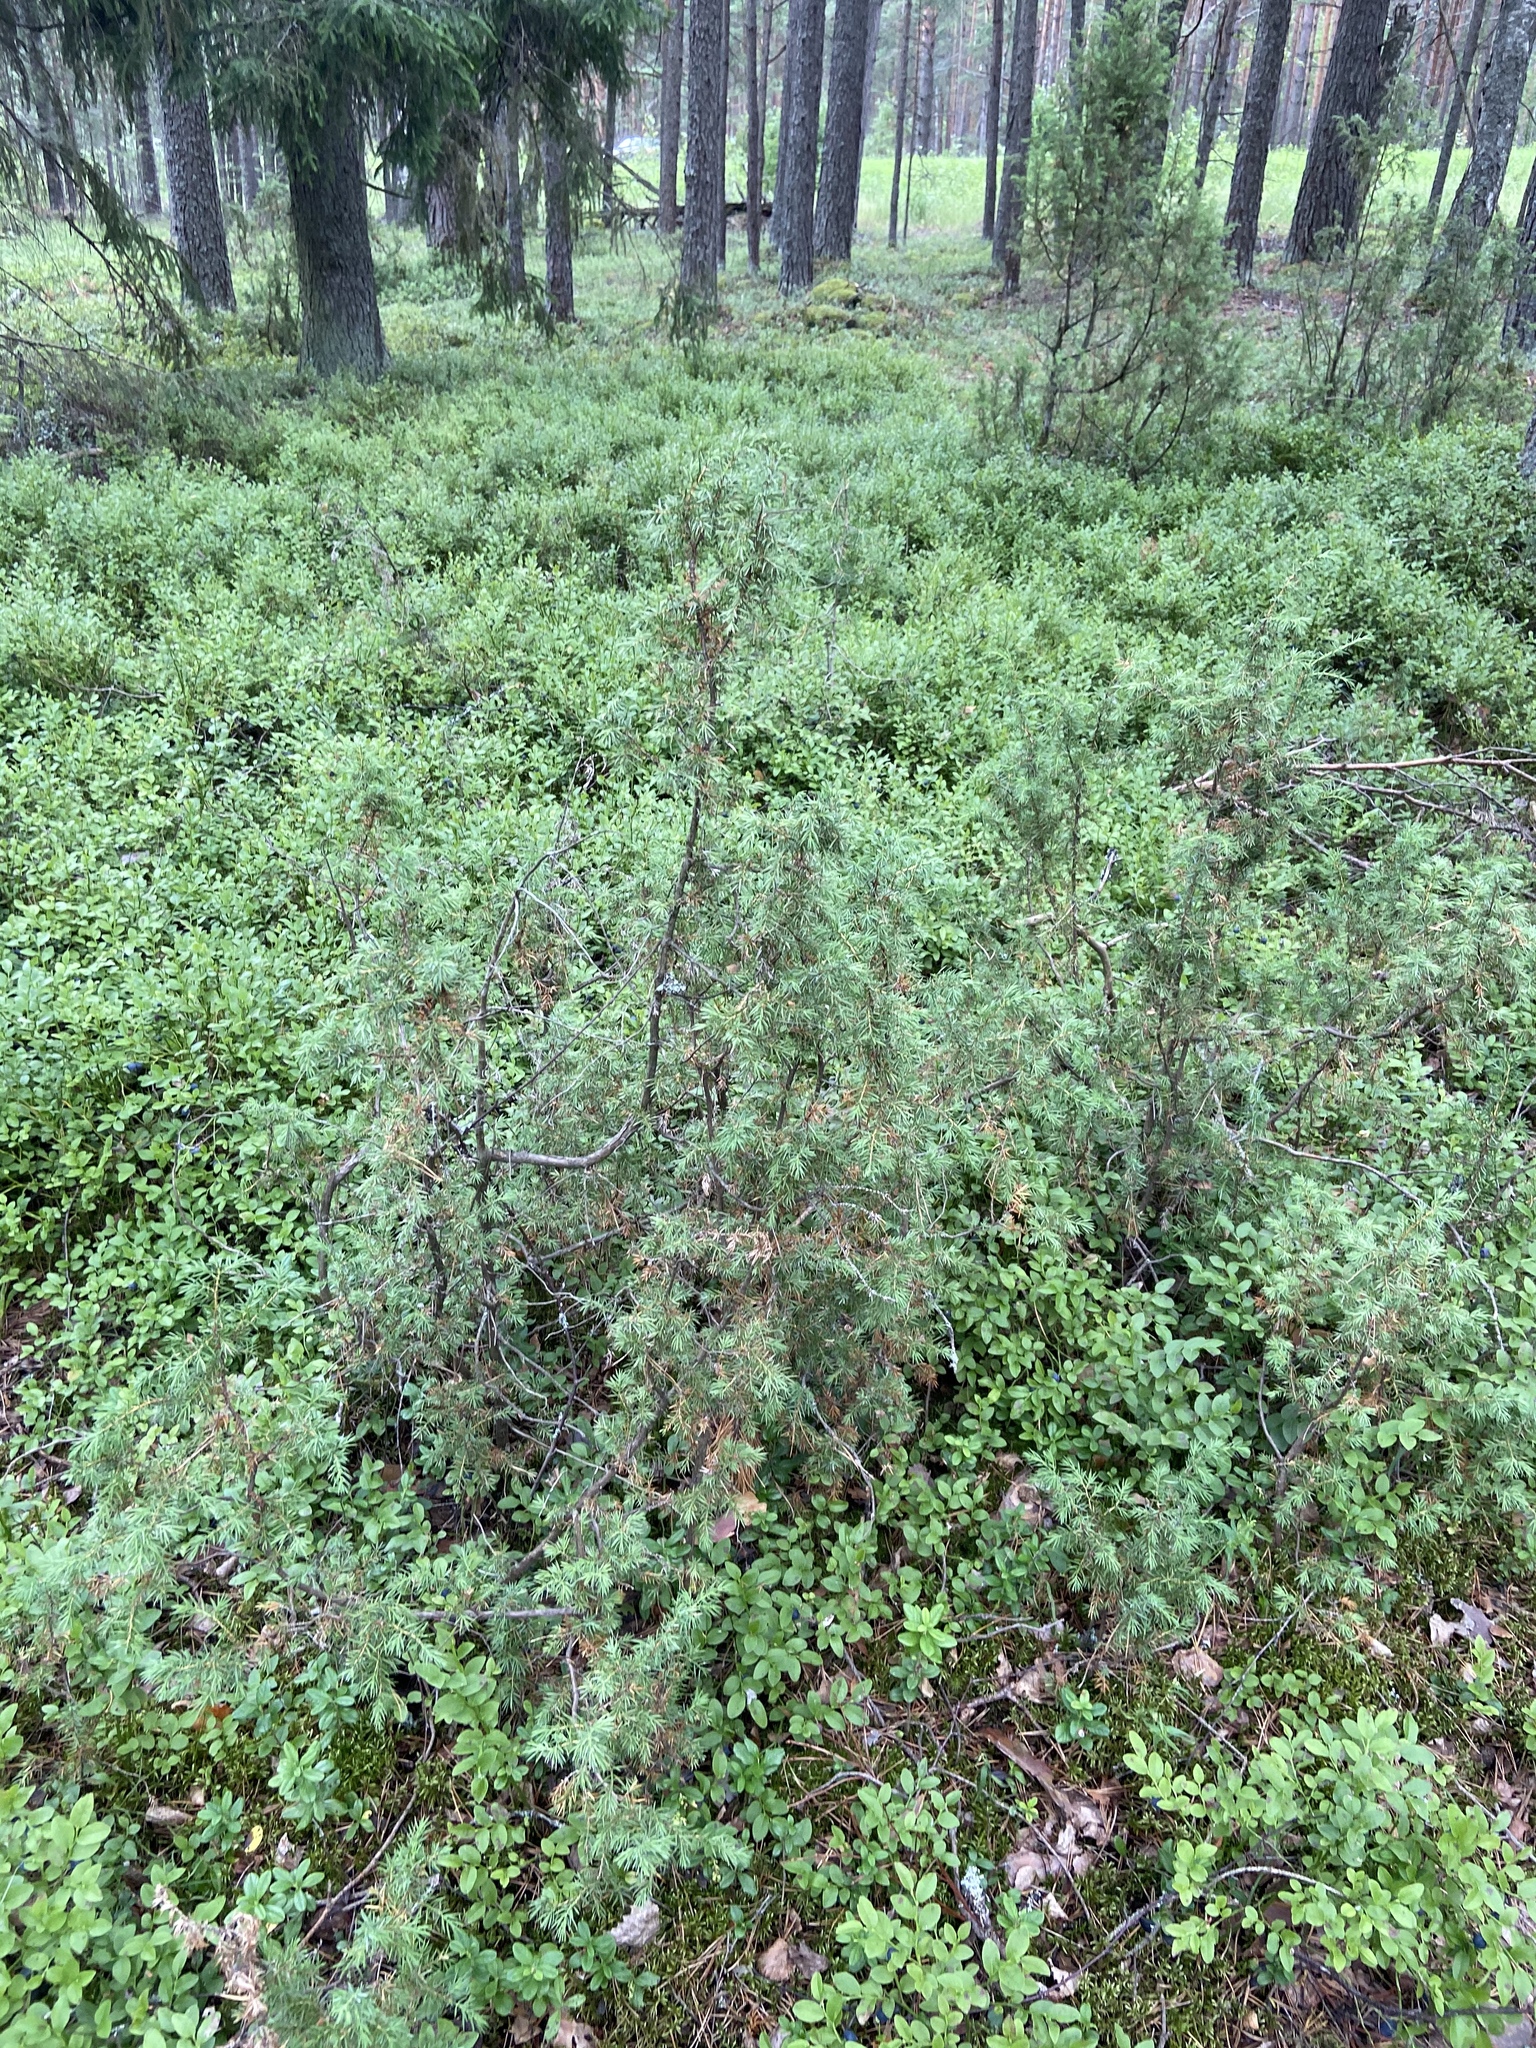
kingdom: Plantae
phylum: Tracheophyta
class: Pinopsida
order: Pinales
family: Cupressaceae
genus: Juniperus
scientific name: Juniperus communis
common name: Common juniper
